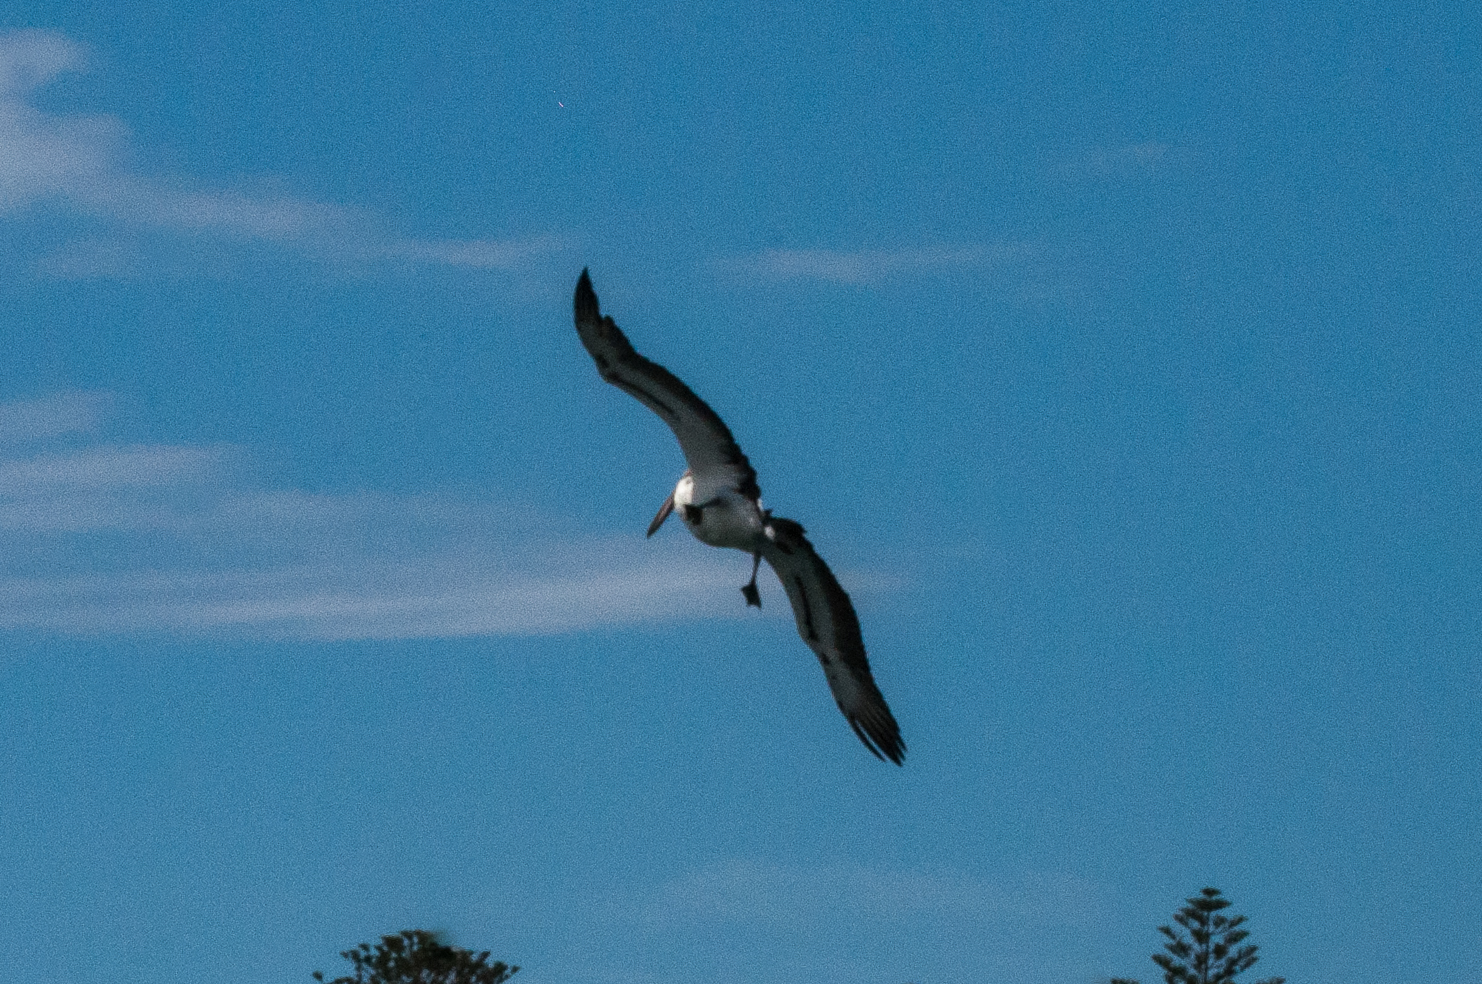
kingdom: Animalia
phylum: Chordata
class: Aves
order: Pelecaniformes
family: Pelecanidae
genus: Pelecanus
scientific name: Pelecanus conspicillatus
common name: Australian pelican
